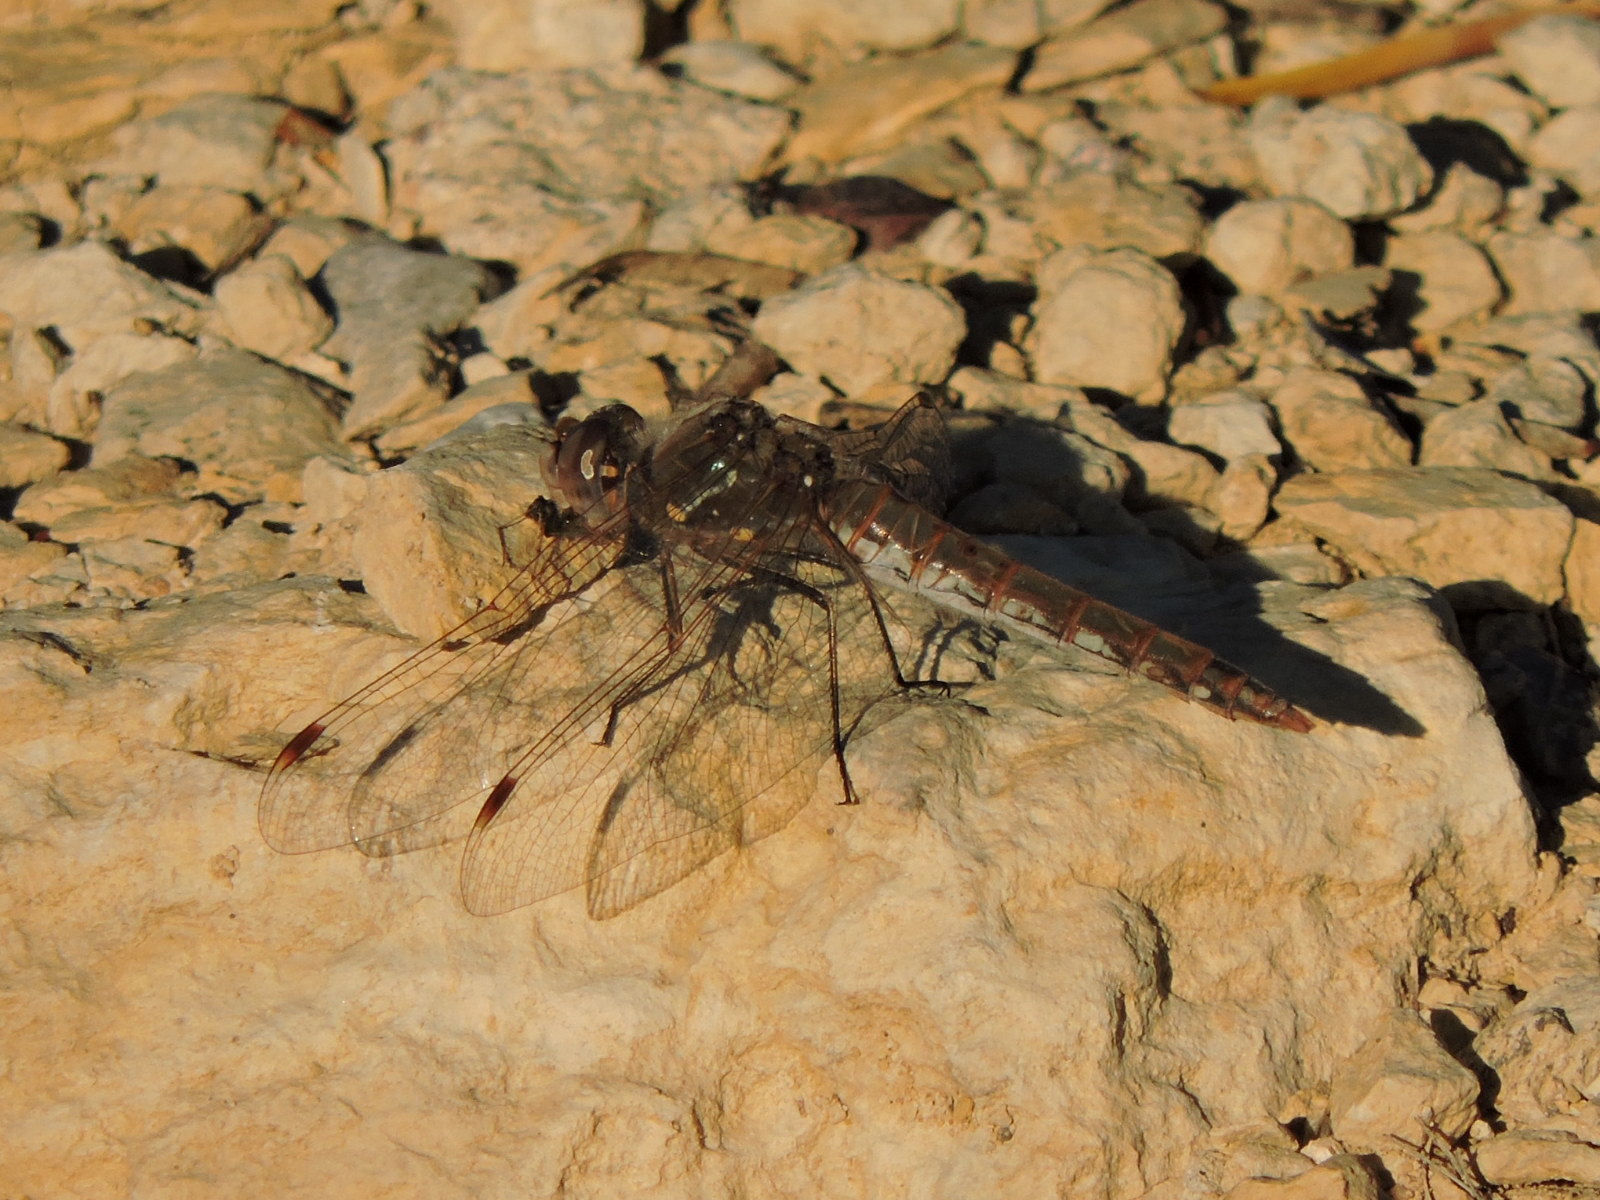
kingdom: Animalia
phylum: Arthropoda
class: Insecta
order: Odonata
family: Libellulidae
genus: Sympetrum
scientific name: Sympetrum corruptum
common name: Variegated meadowhawk
